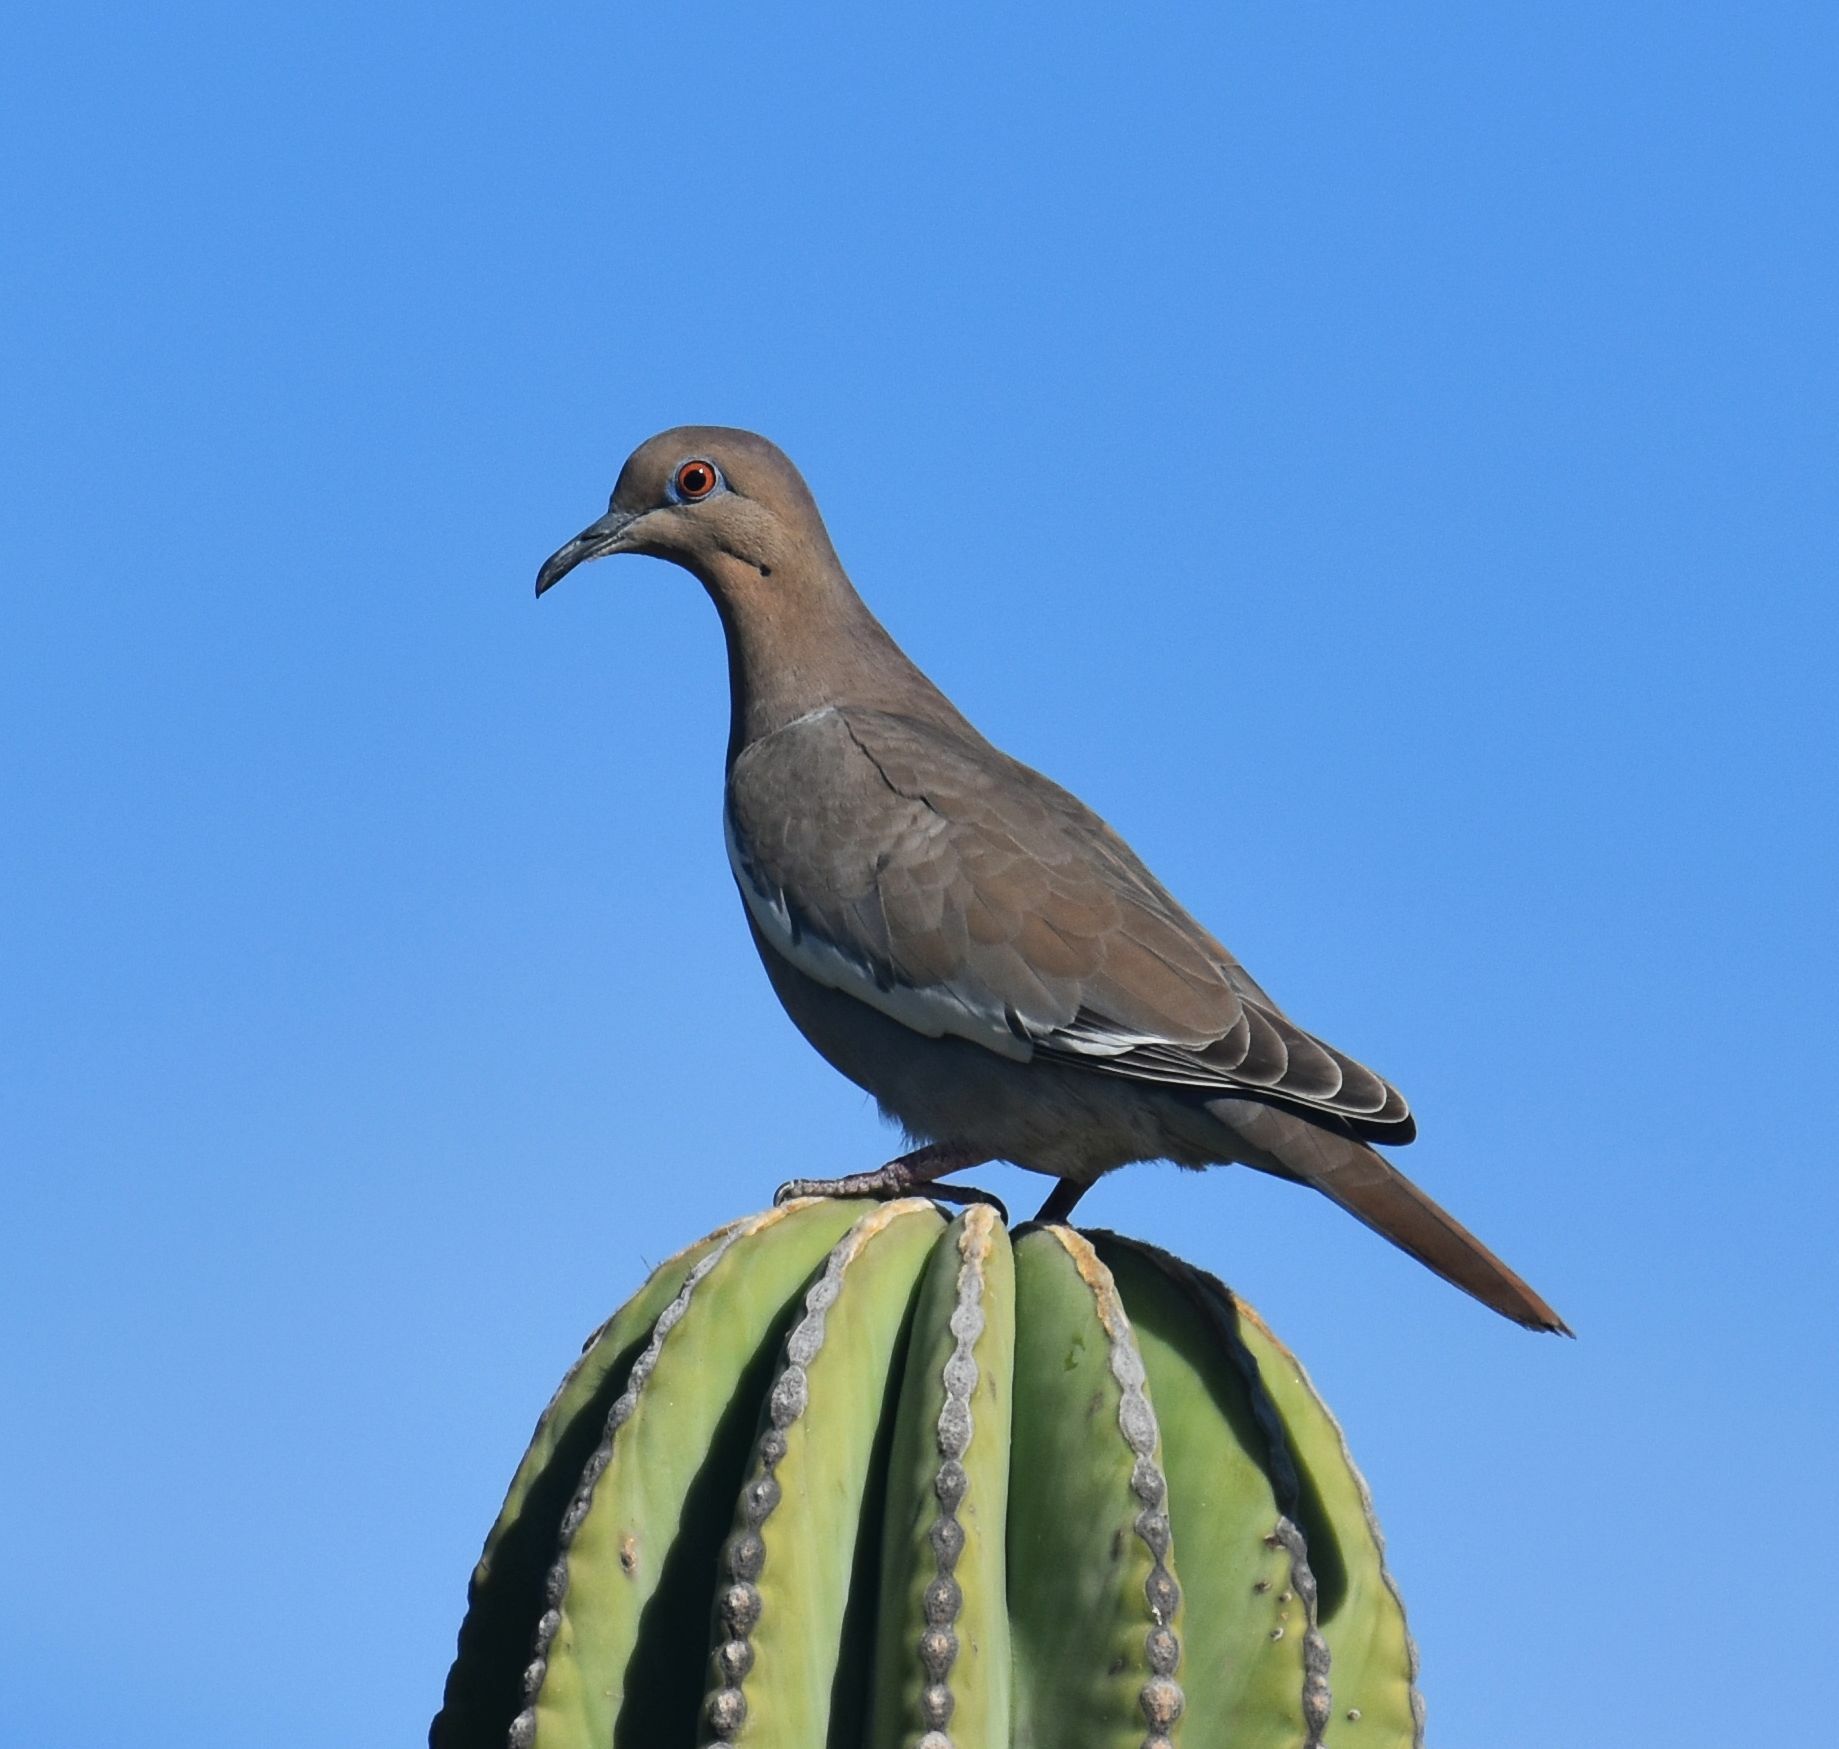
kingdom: Animalia
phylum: Chordata
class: Aves
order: Columbiformes
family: Columbidae
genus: Zenaida
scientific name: Zenaida asiatica
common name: White-winged dove
